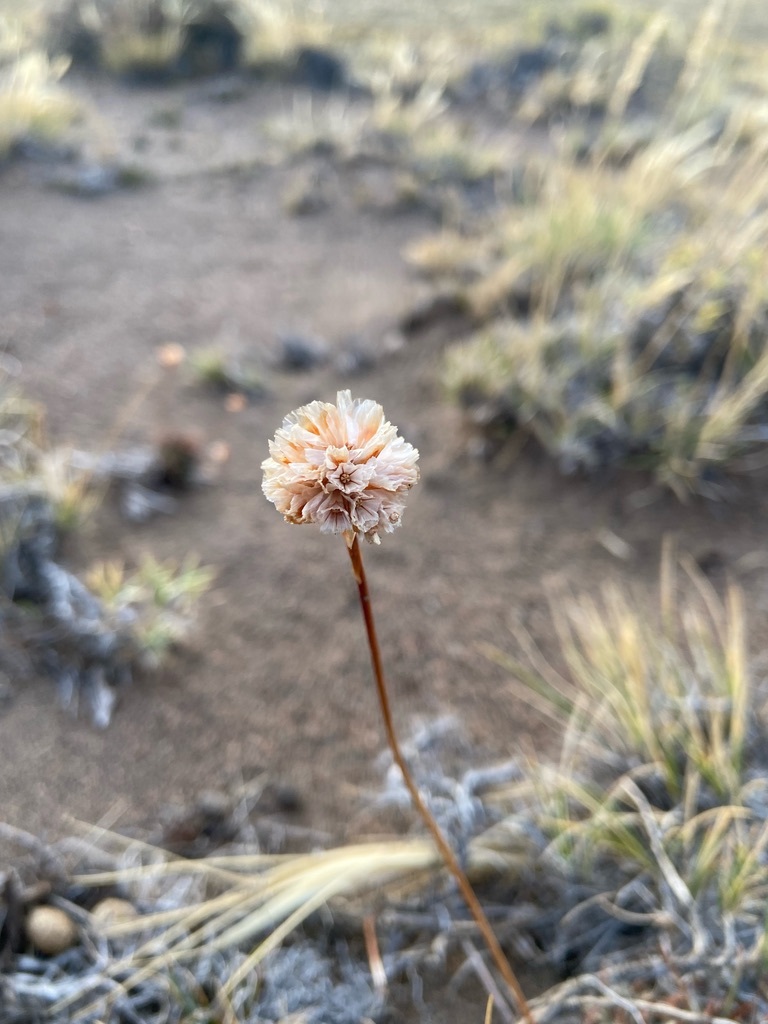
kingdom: Plantae
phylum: Tracheophyta
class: Magnoliopsida
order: Caryophyllales
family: Plumbaginaceae
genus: Armeria
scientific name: Armeria curvifolia
